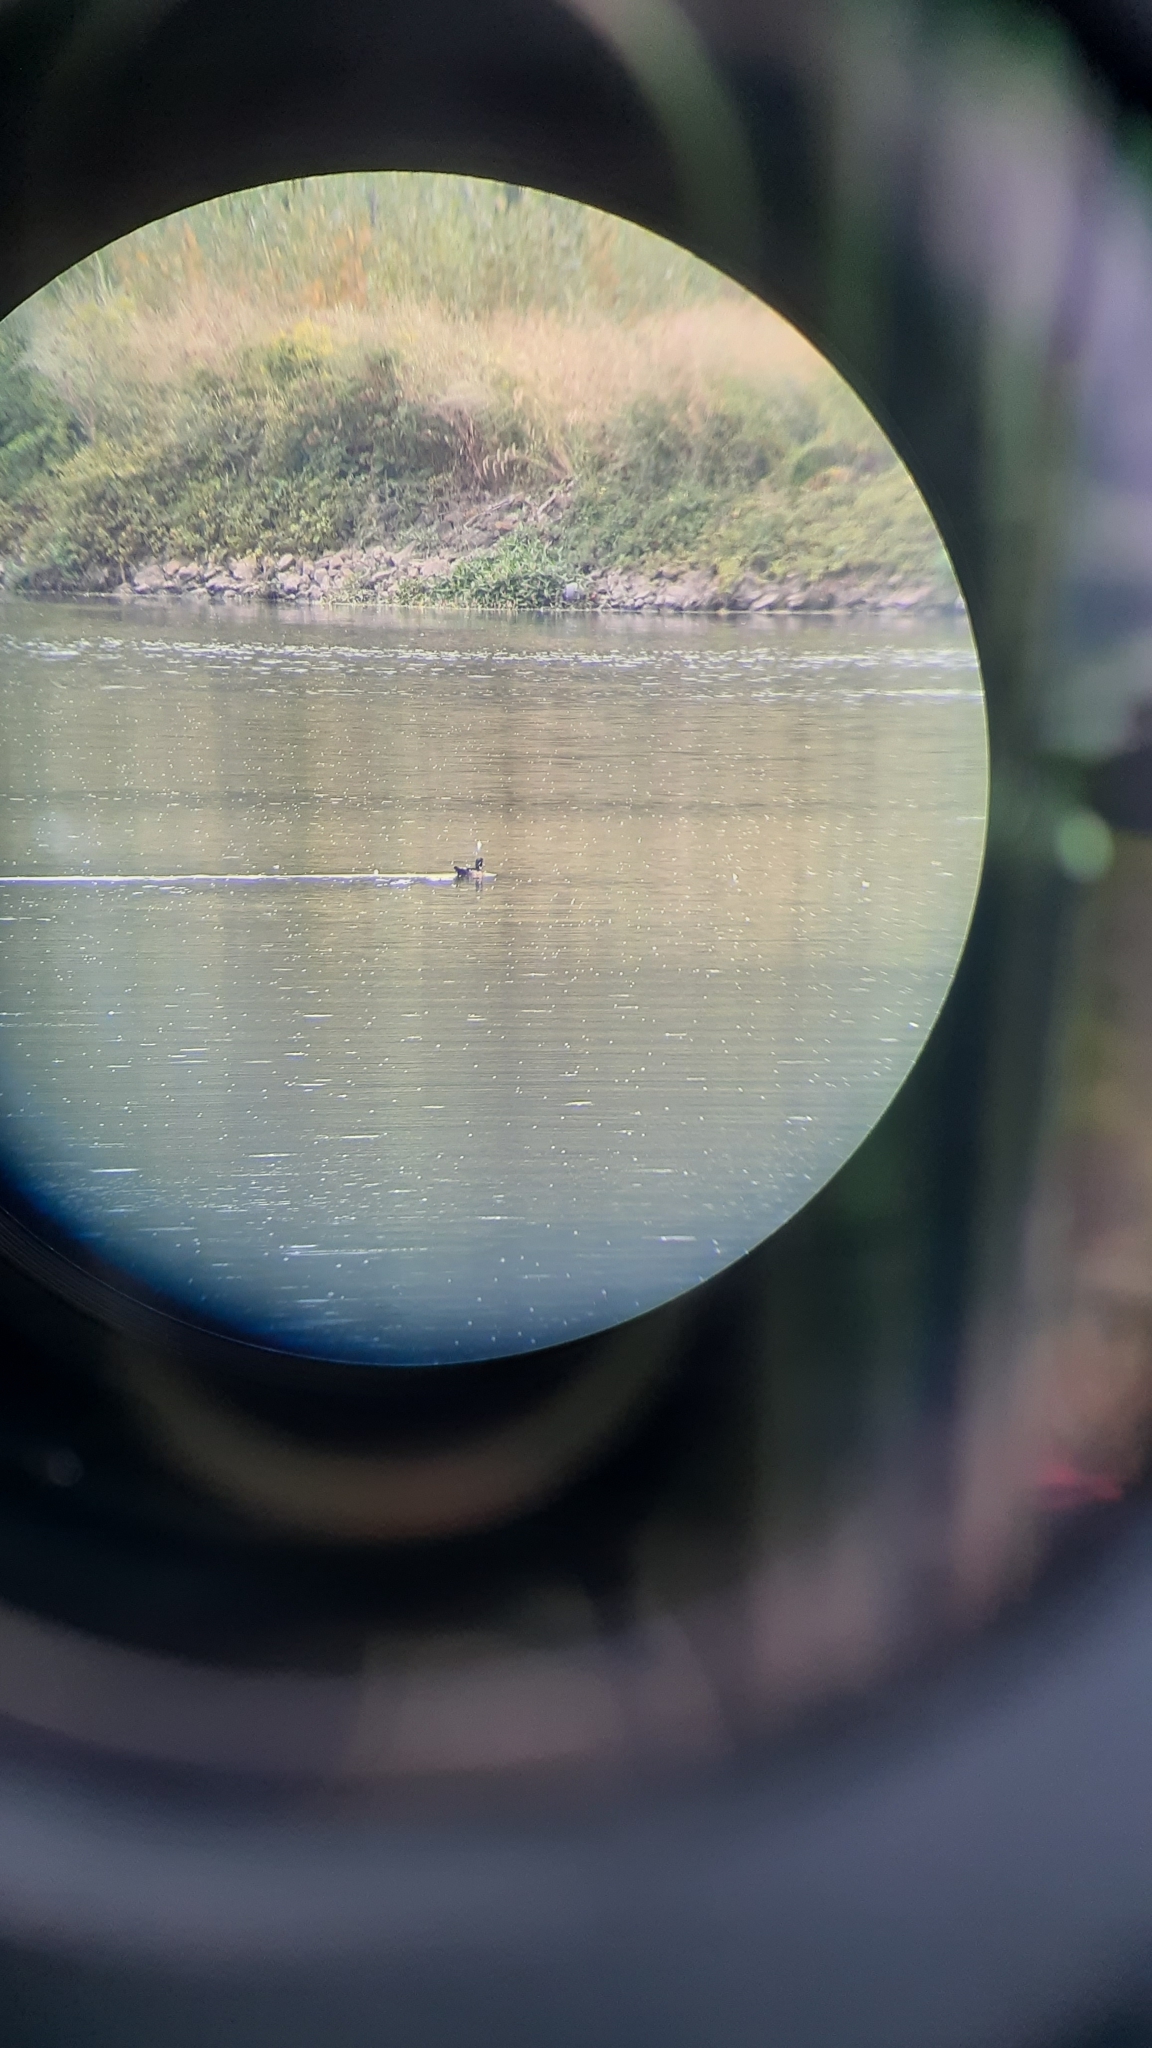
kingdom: Animalia
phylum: Chordata
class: Aves
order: Anseriformes
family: Anatidae
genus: Aix
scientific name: Aix sponsa
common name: Wood duck
